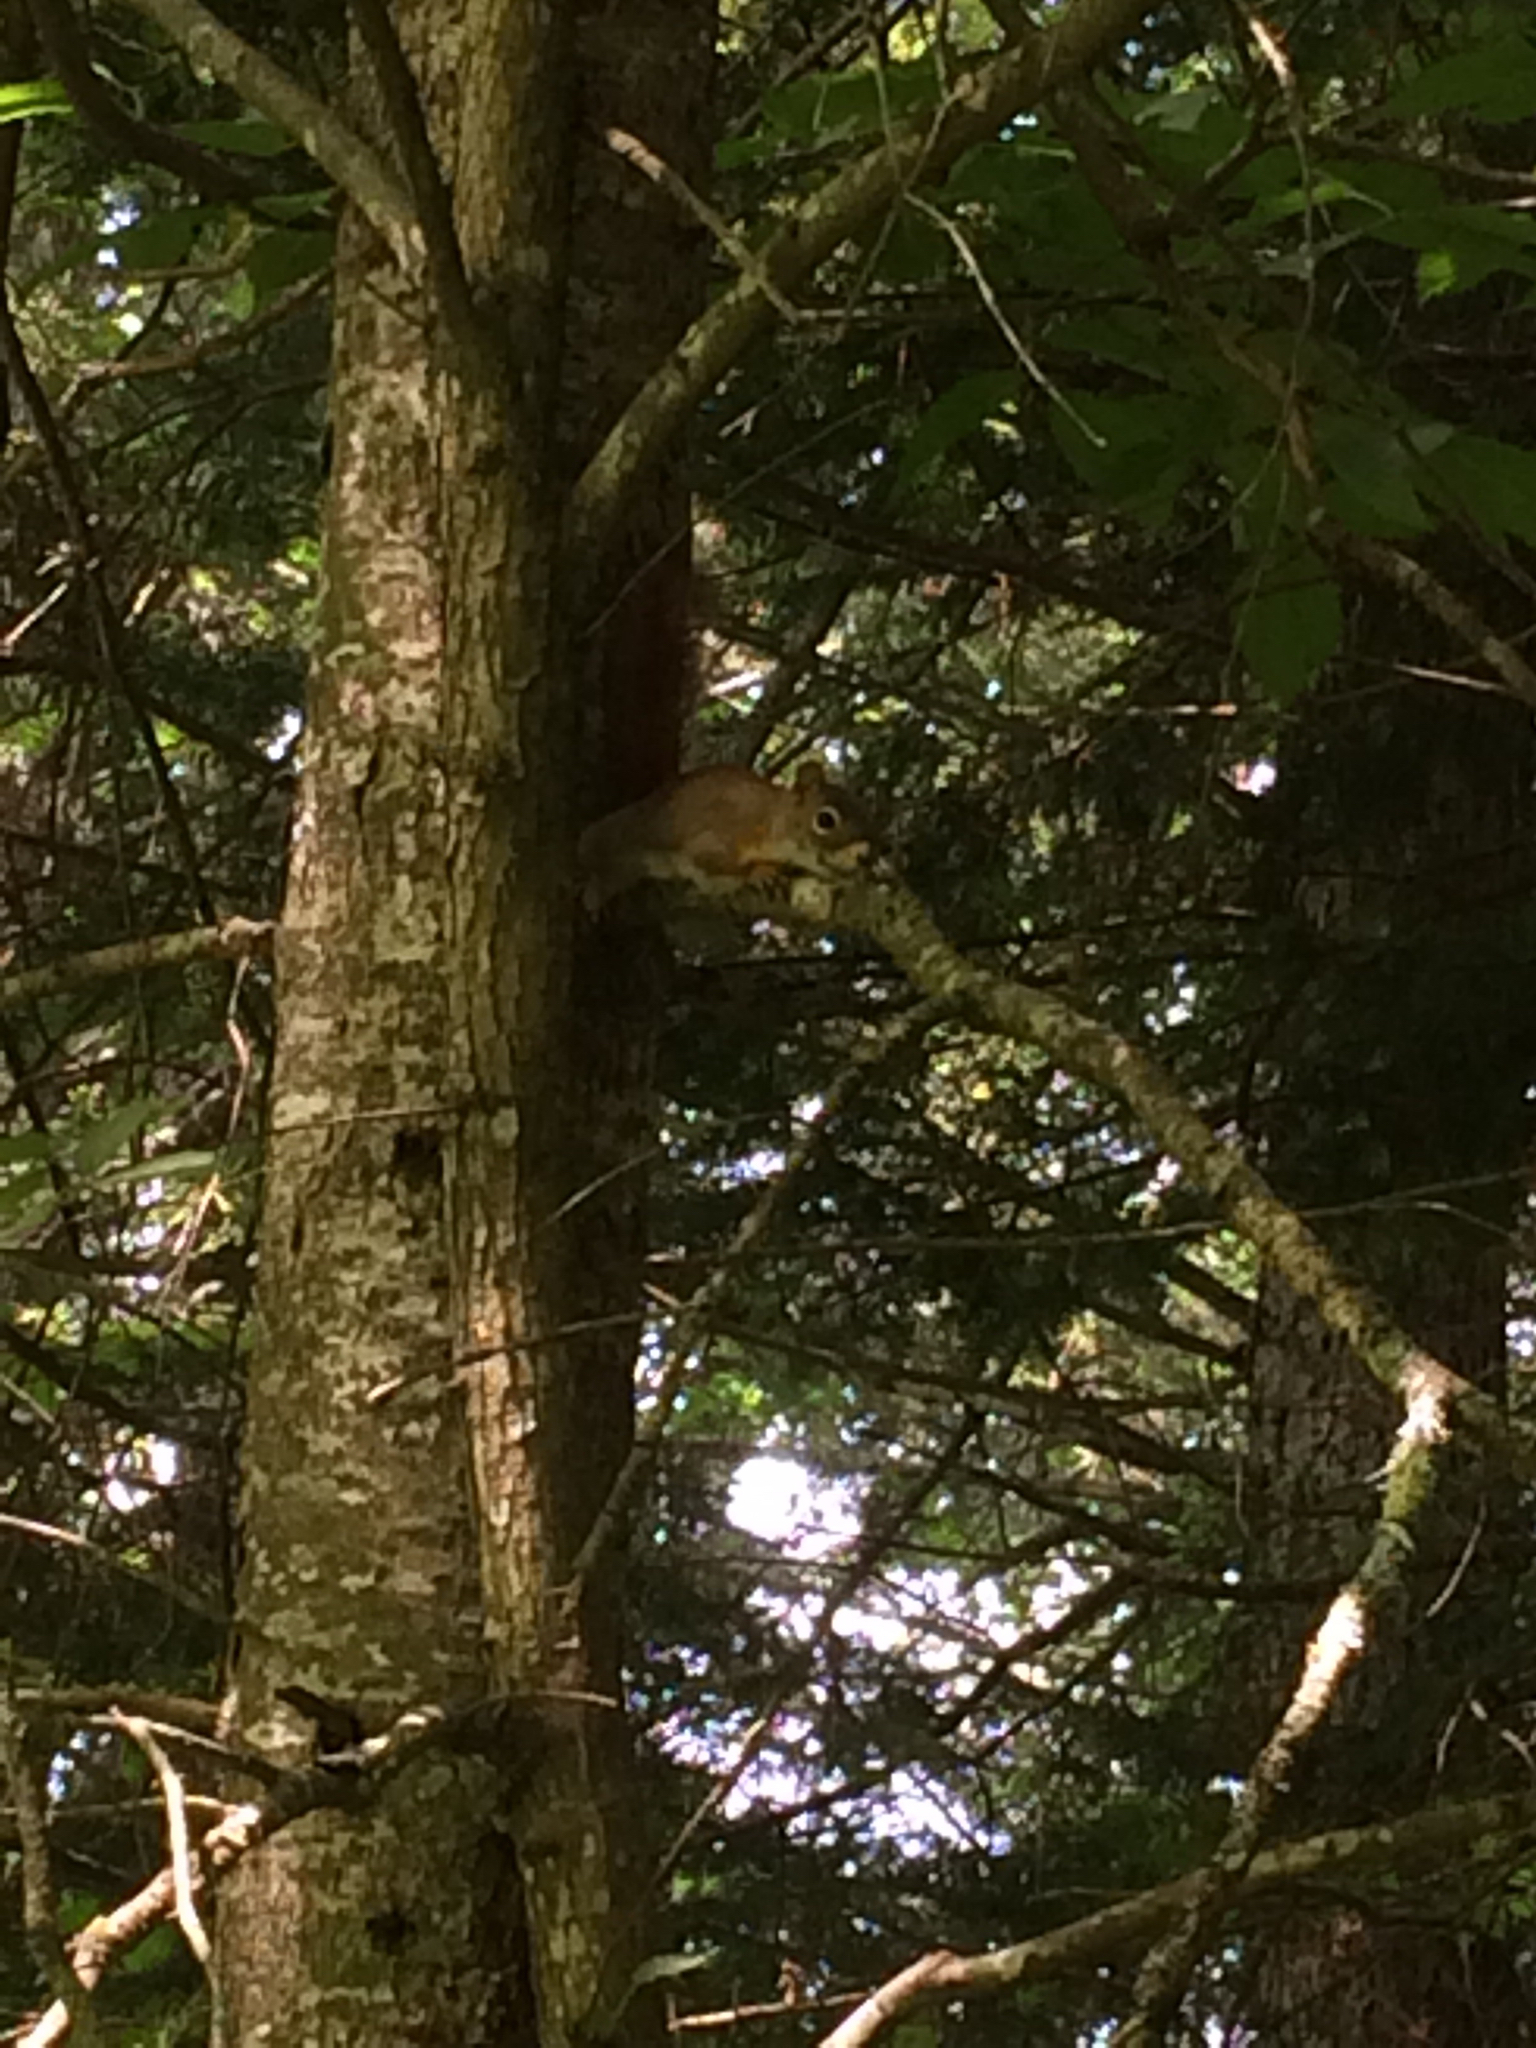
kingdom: Animalia
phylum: Chordata
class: Mammalia
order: Rodentia
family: Sciuridae
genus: Tamiasciurus
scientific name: Tamiasciurus hudsonicus
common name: Red squirrel
